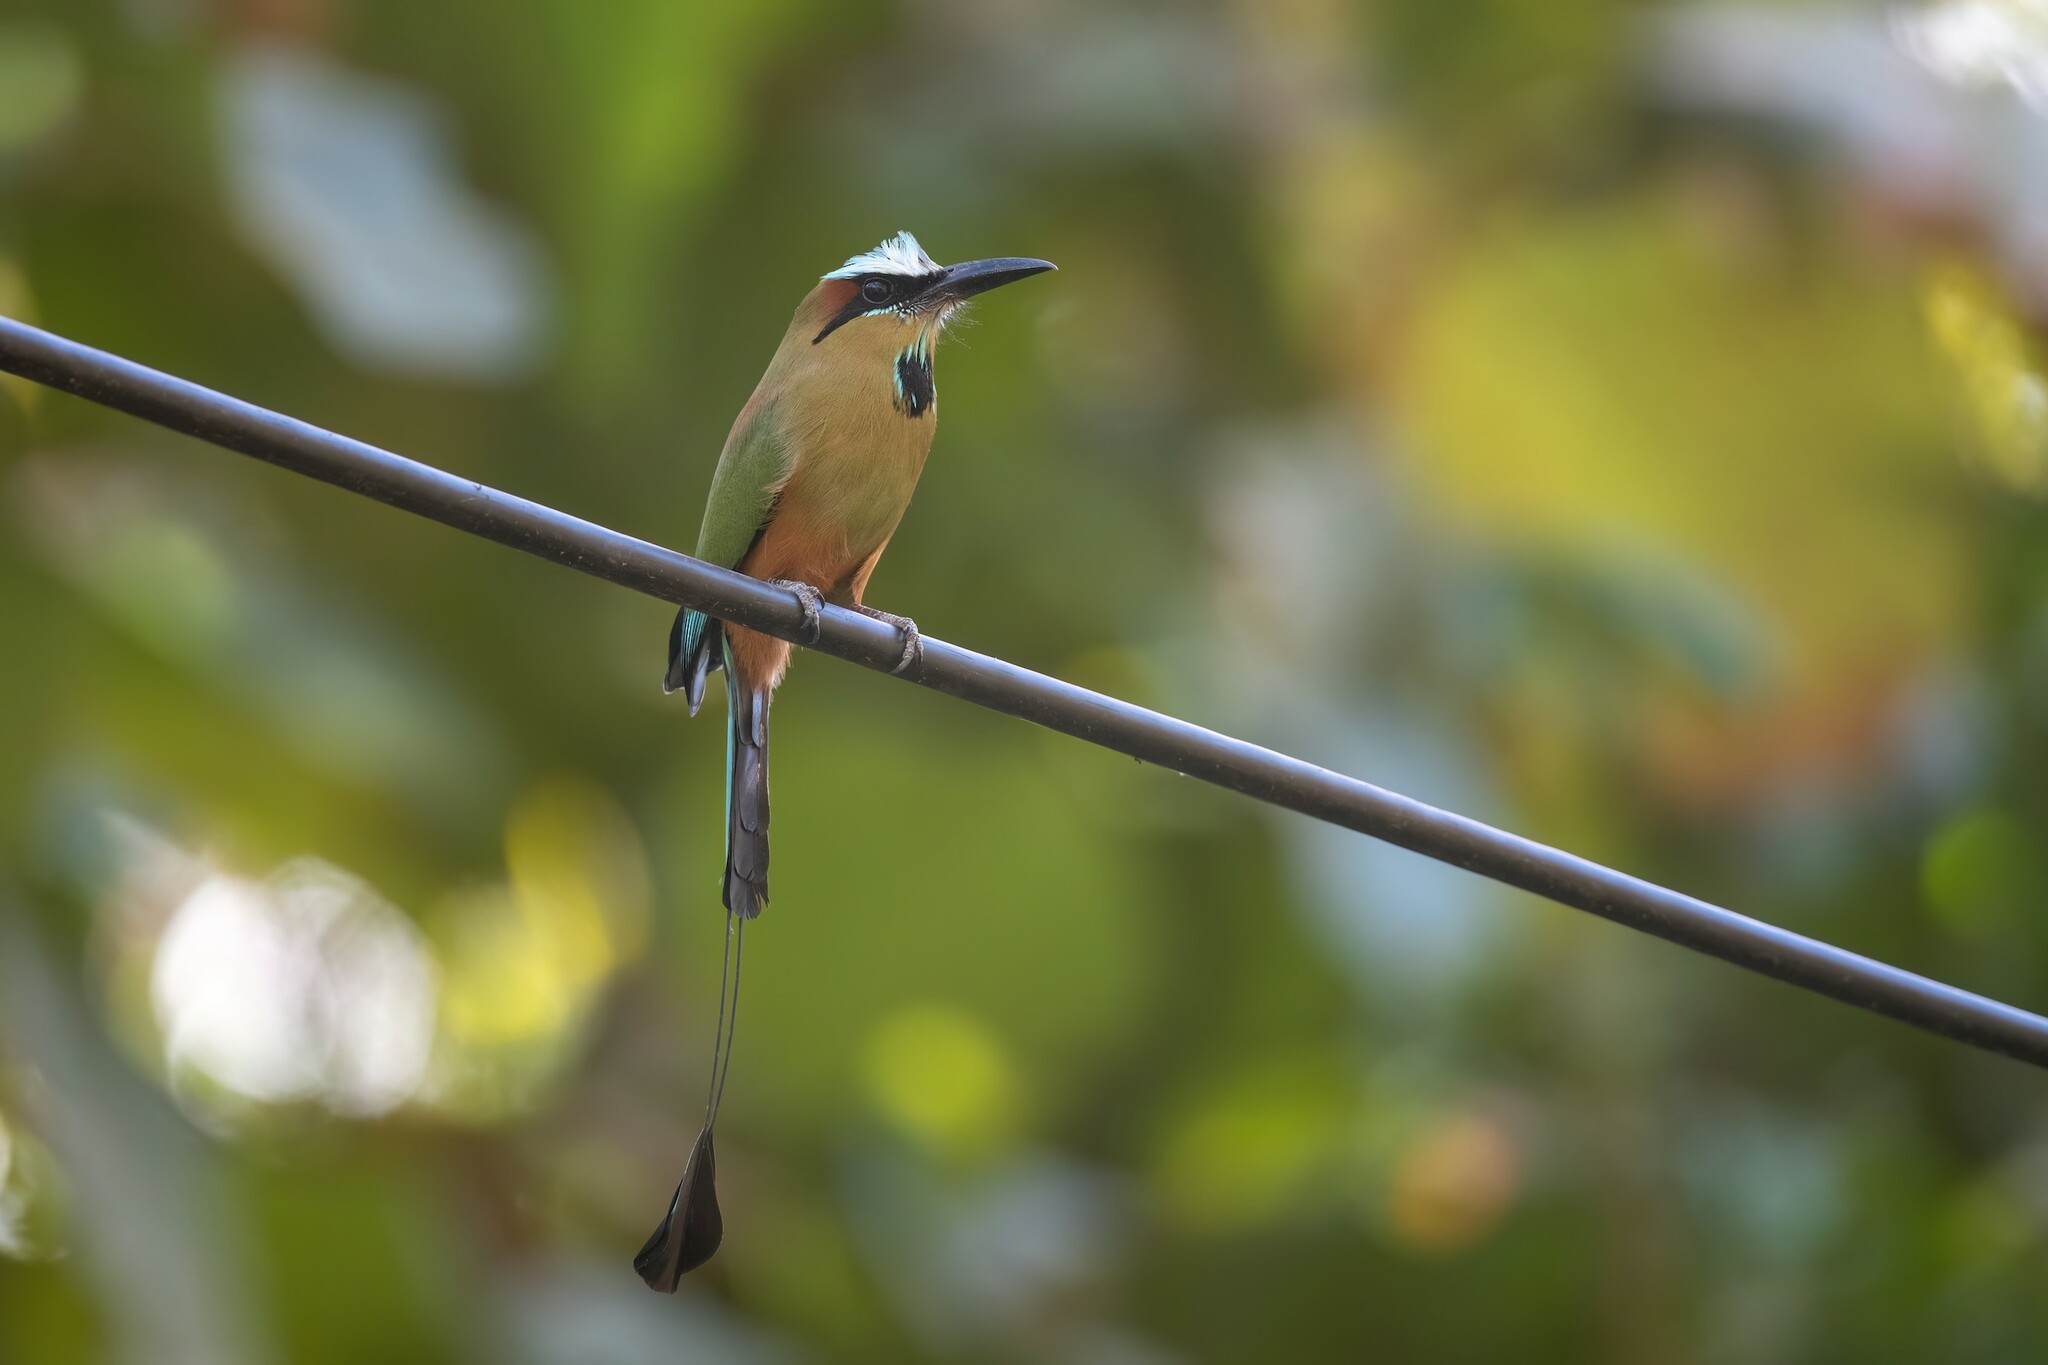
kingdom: Animalia
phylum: Chordata
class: Aves
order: Coraciiformes
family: Momotidae
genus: Eumomota
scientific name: Eumomota superciliosa
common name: Turquoise-browed motmot
